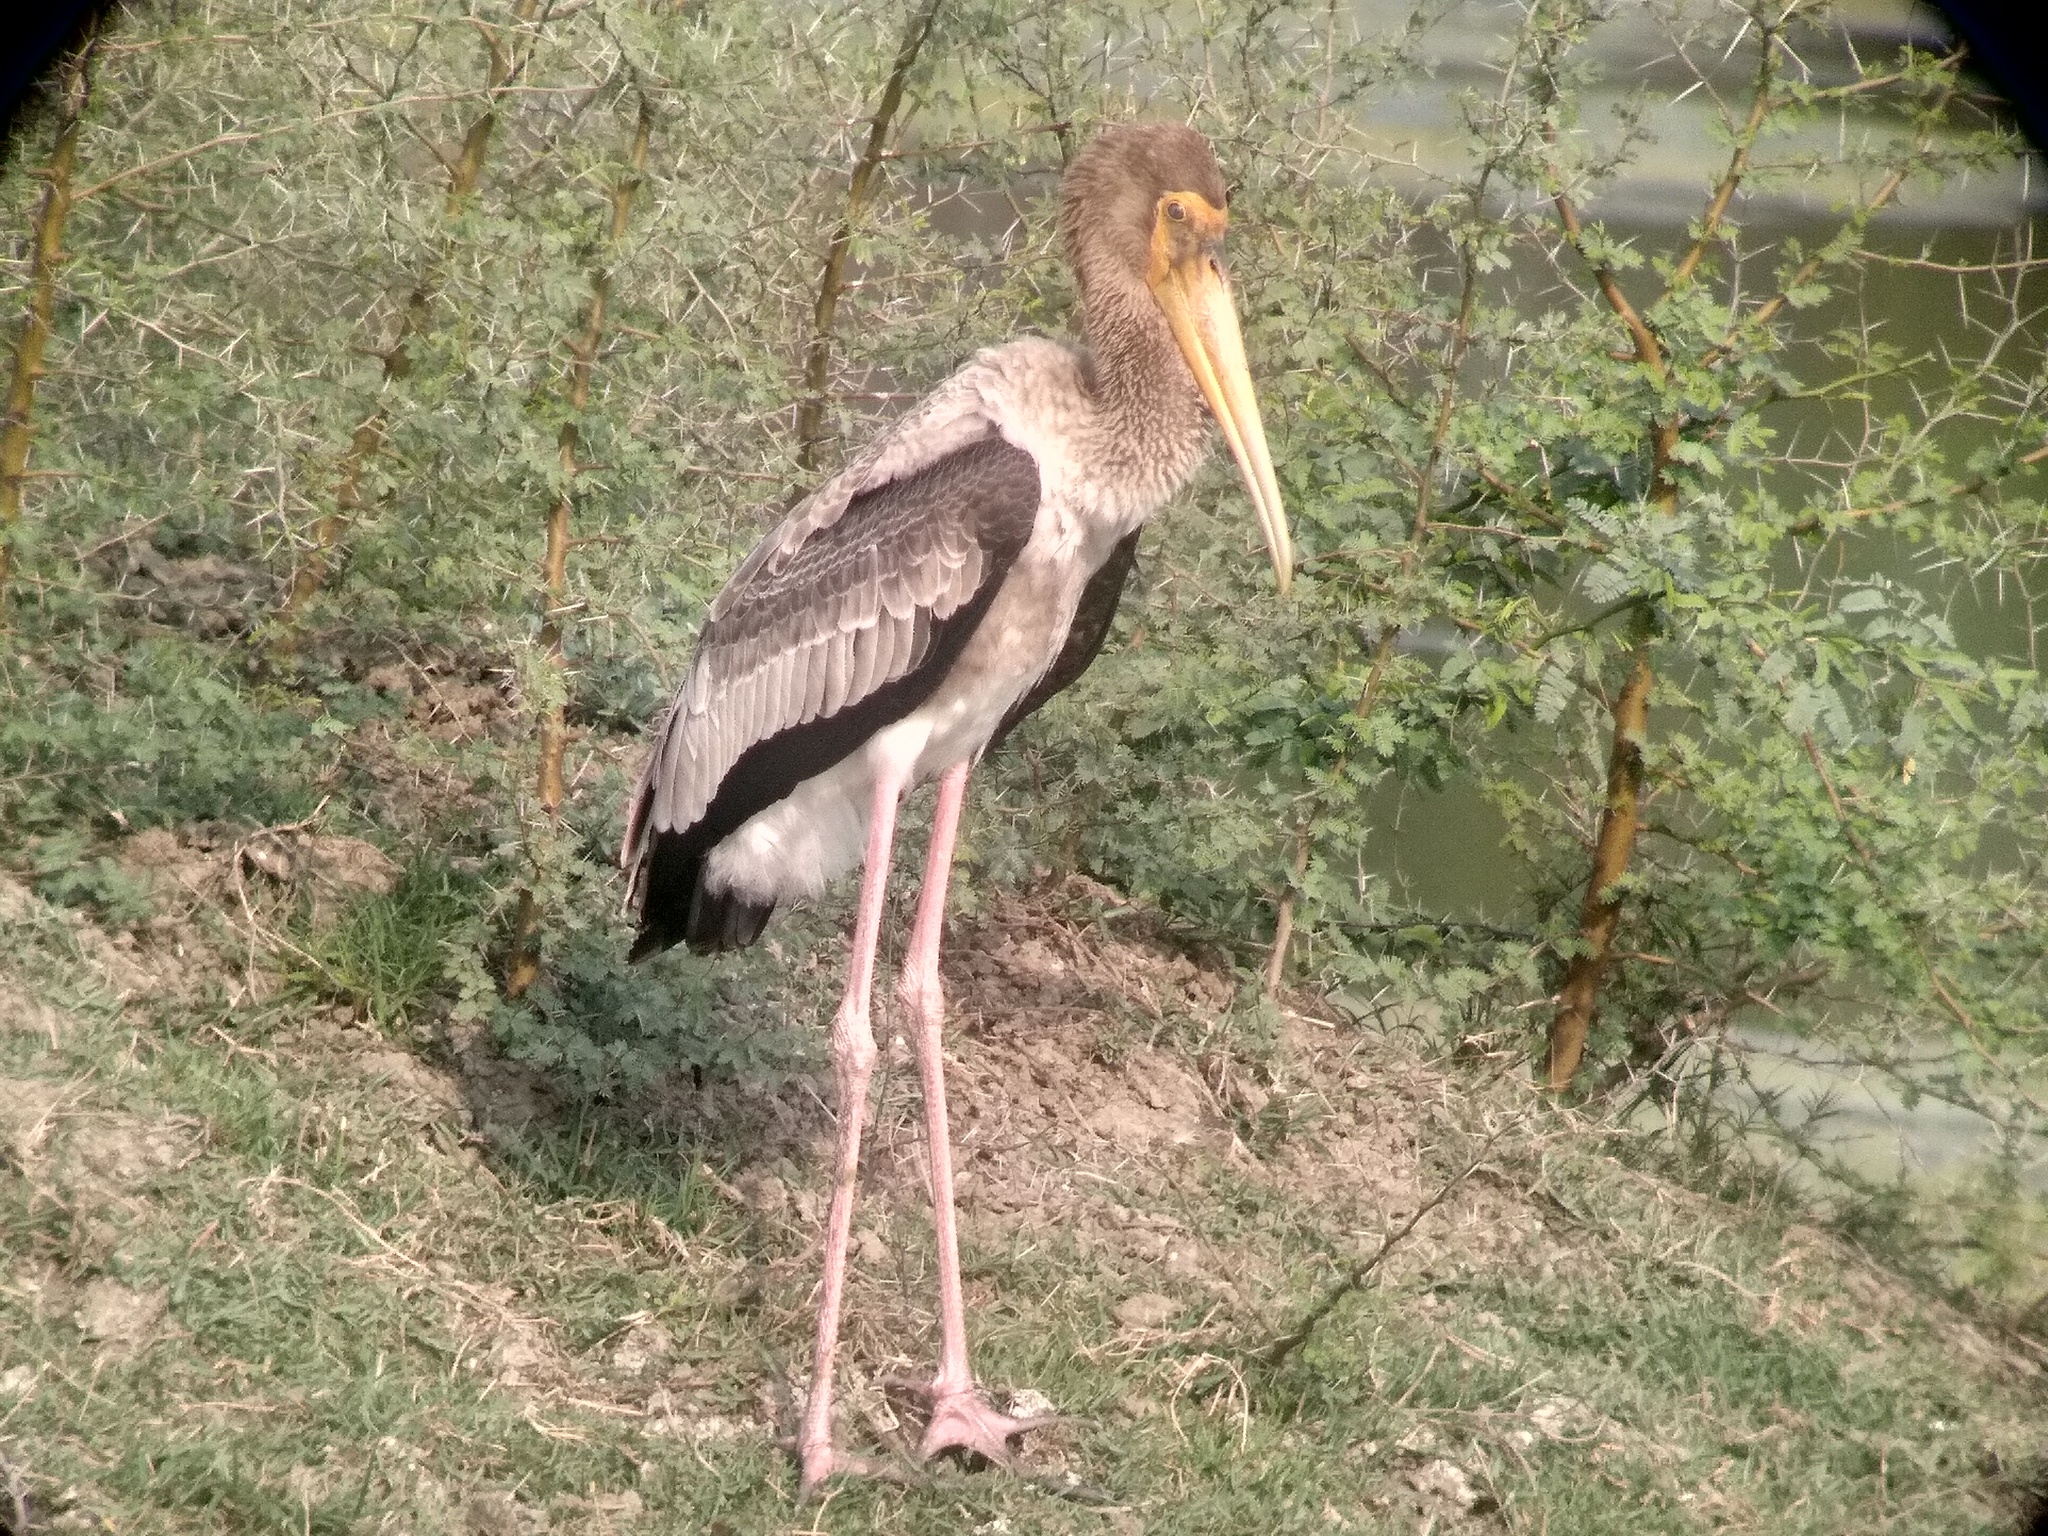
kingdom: Animalia
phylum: Chordata
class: Aves
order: Ciconiiformes
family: Ciconiidae
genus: Mycteria
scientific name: Mycteria leucocephala
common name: Painted stork
